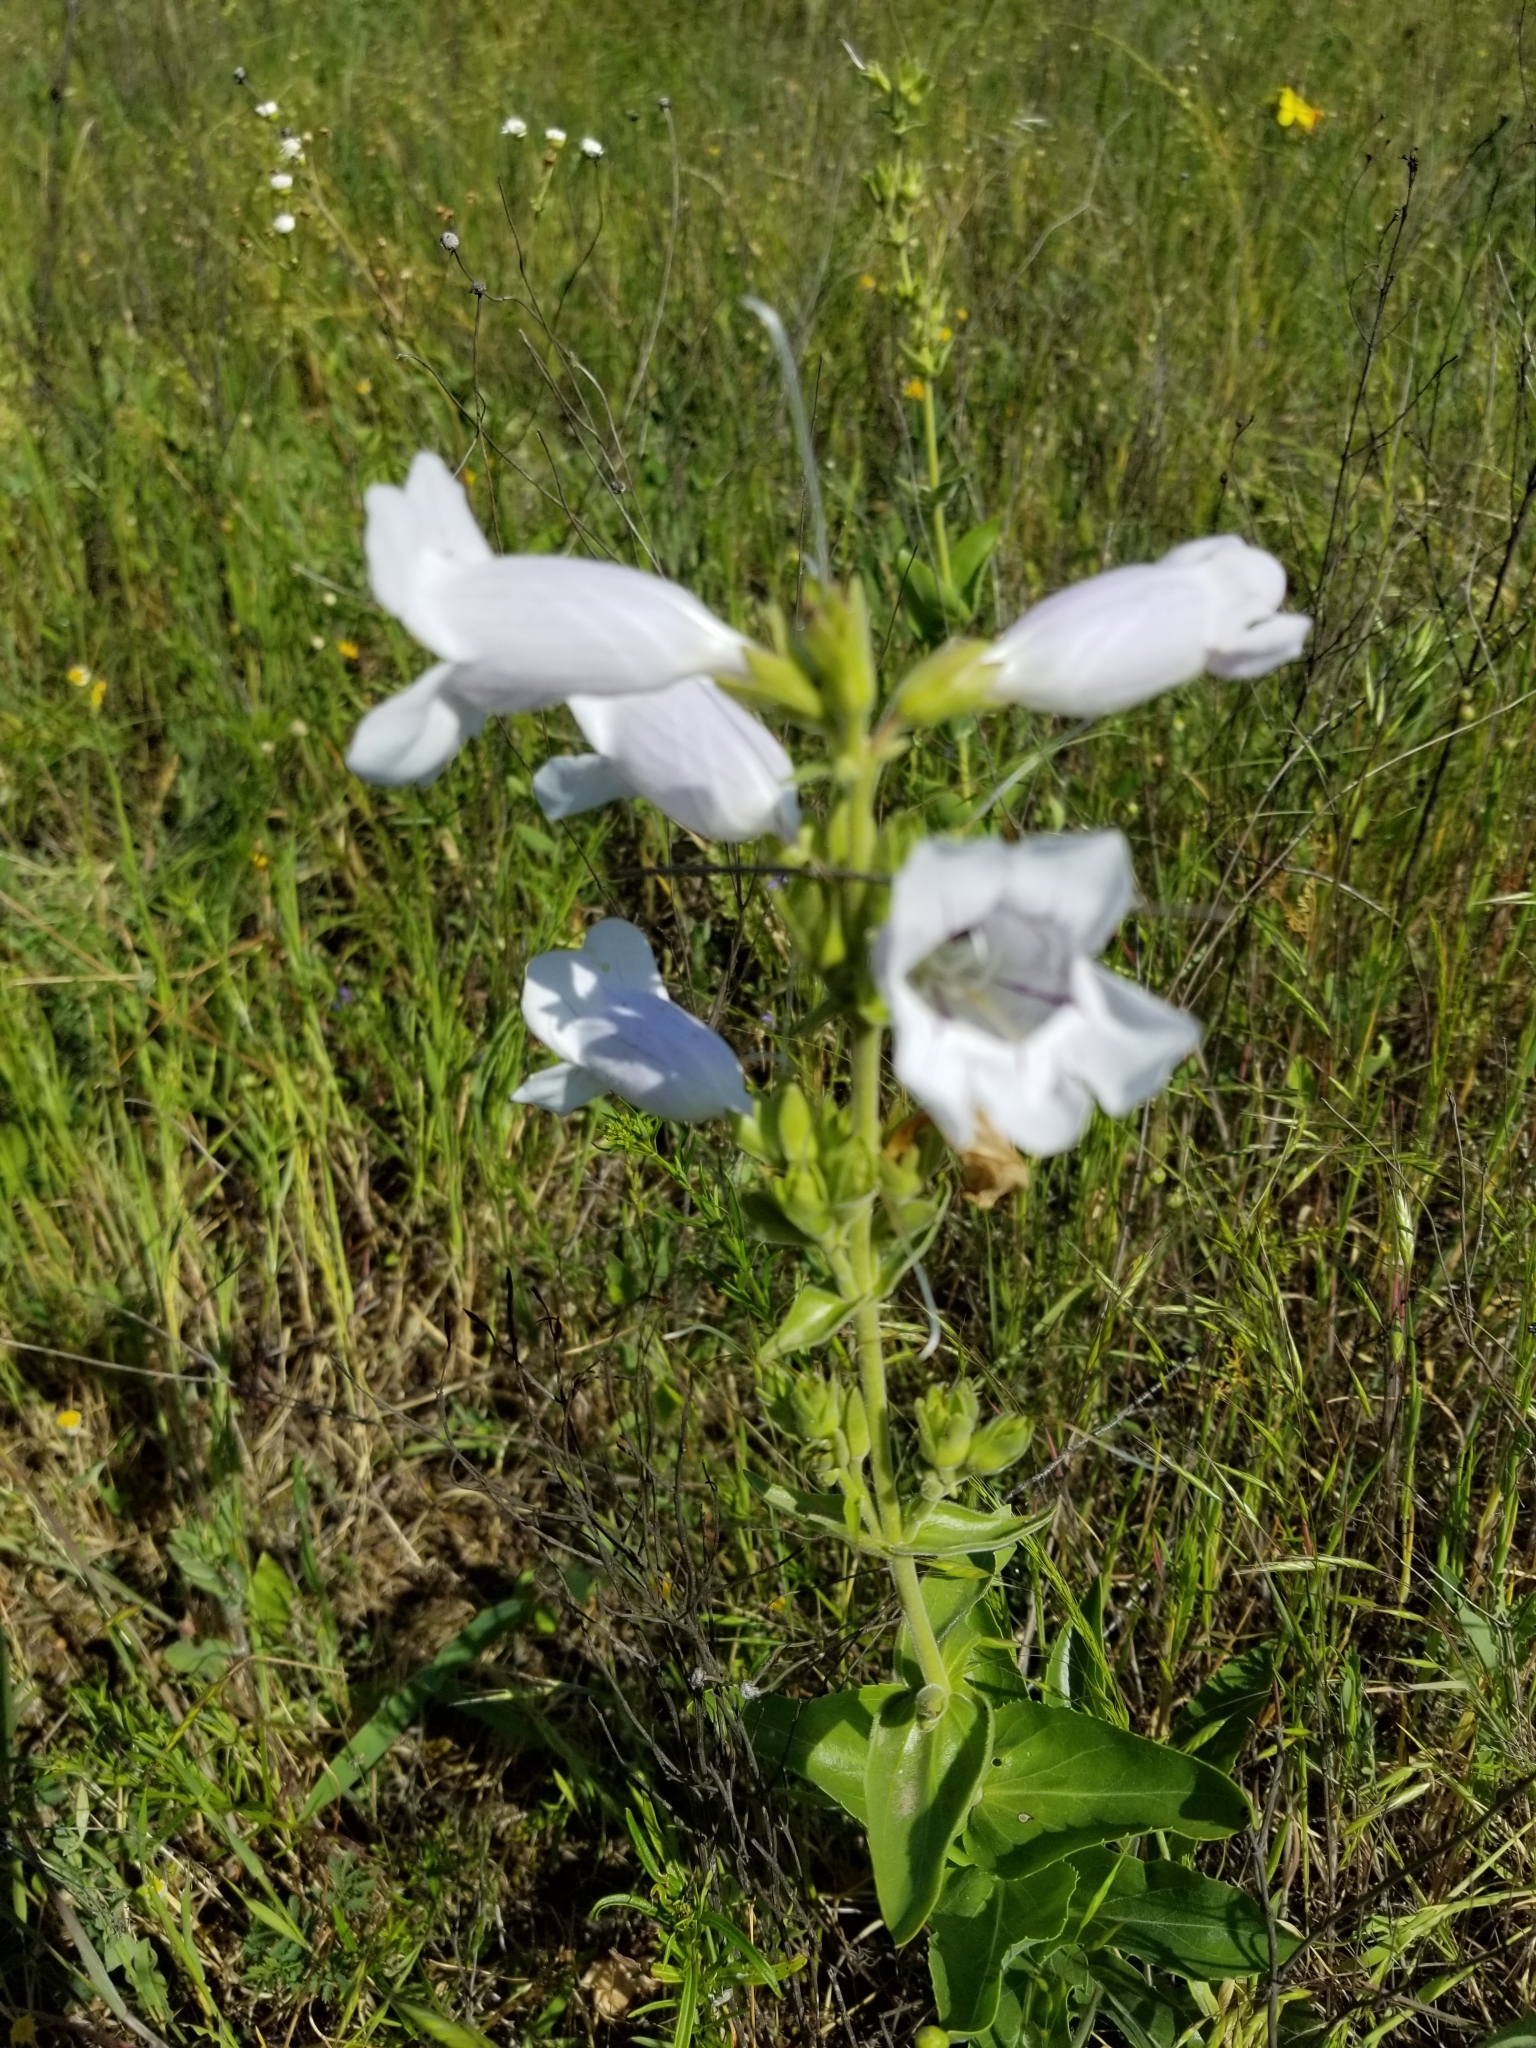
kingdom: Plantae
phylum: Tracheophyta
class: Magnoliopsida
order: Lamiales
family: Plantaginaceae
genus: Penstemon
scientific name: Penstemon cobaea
